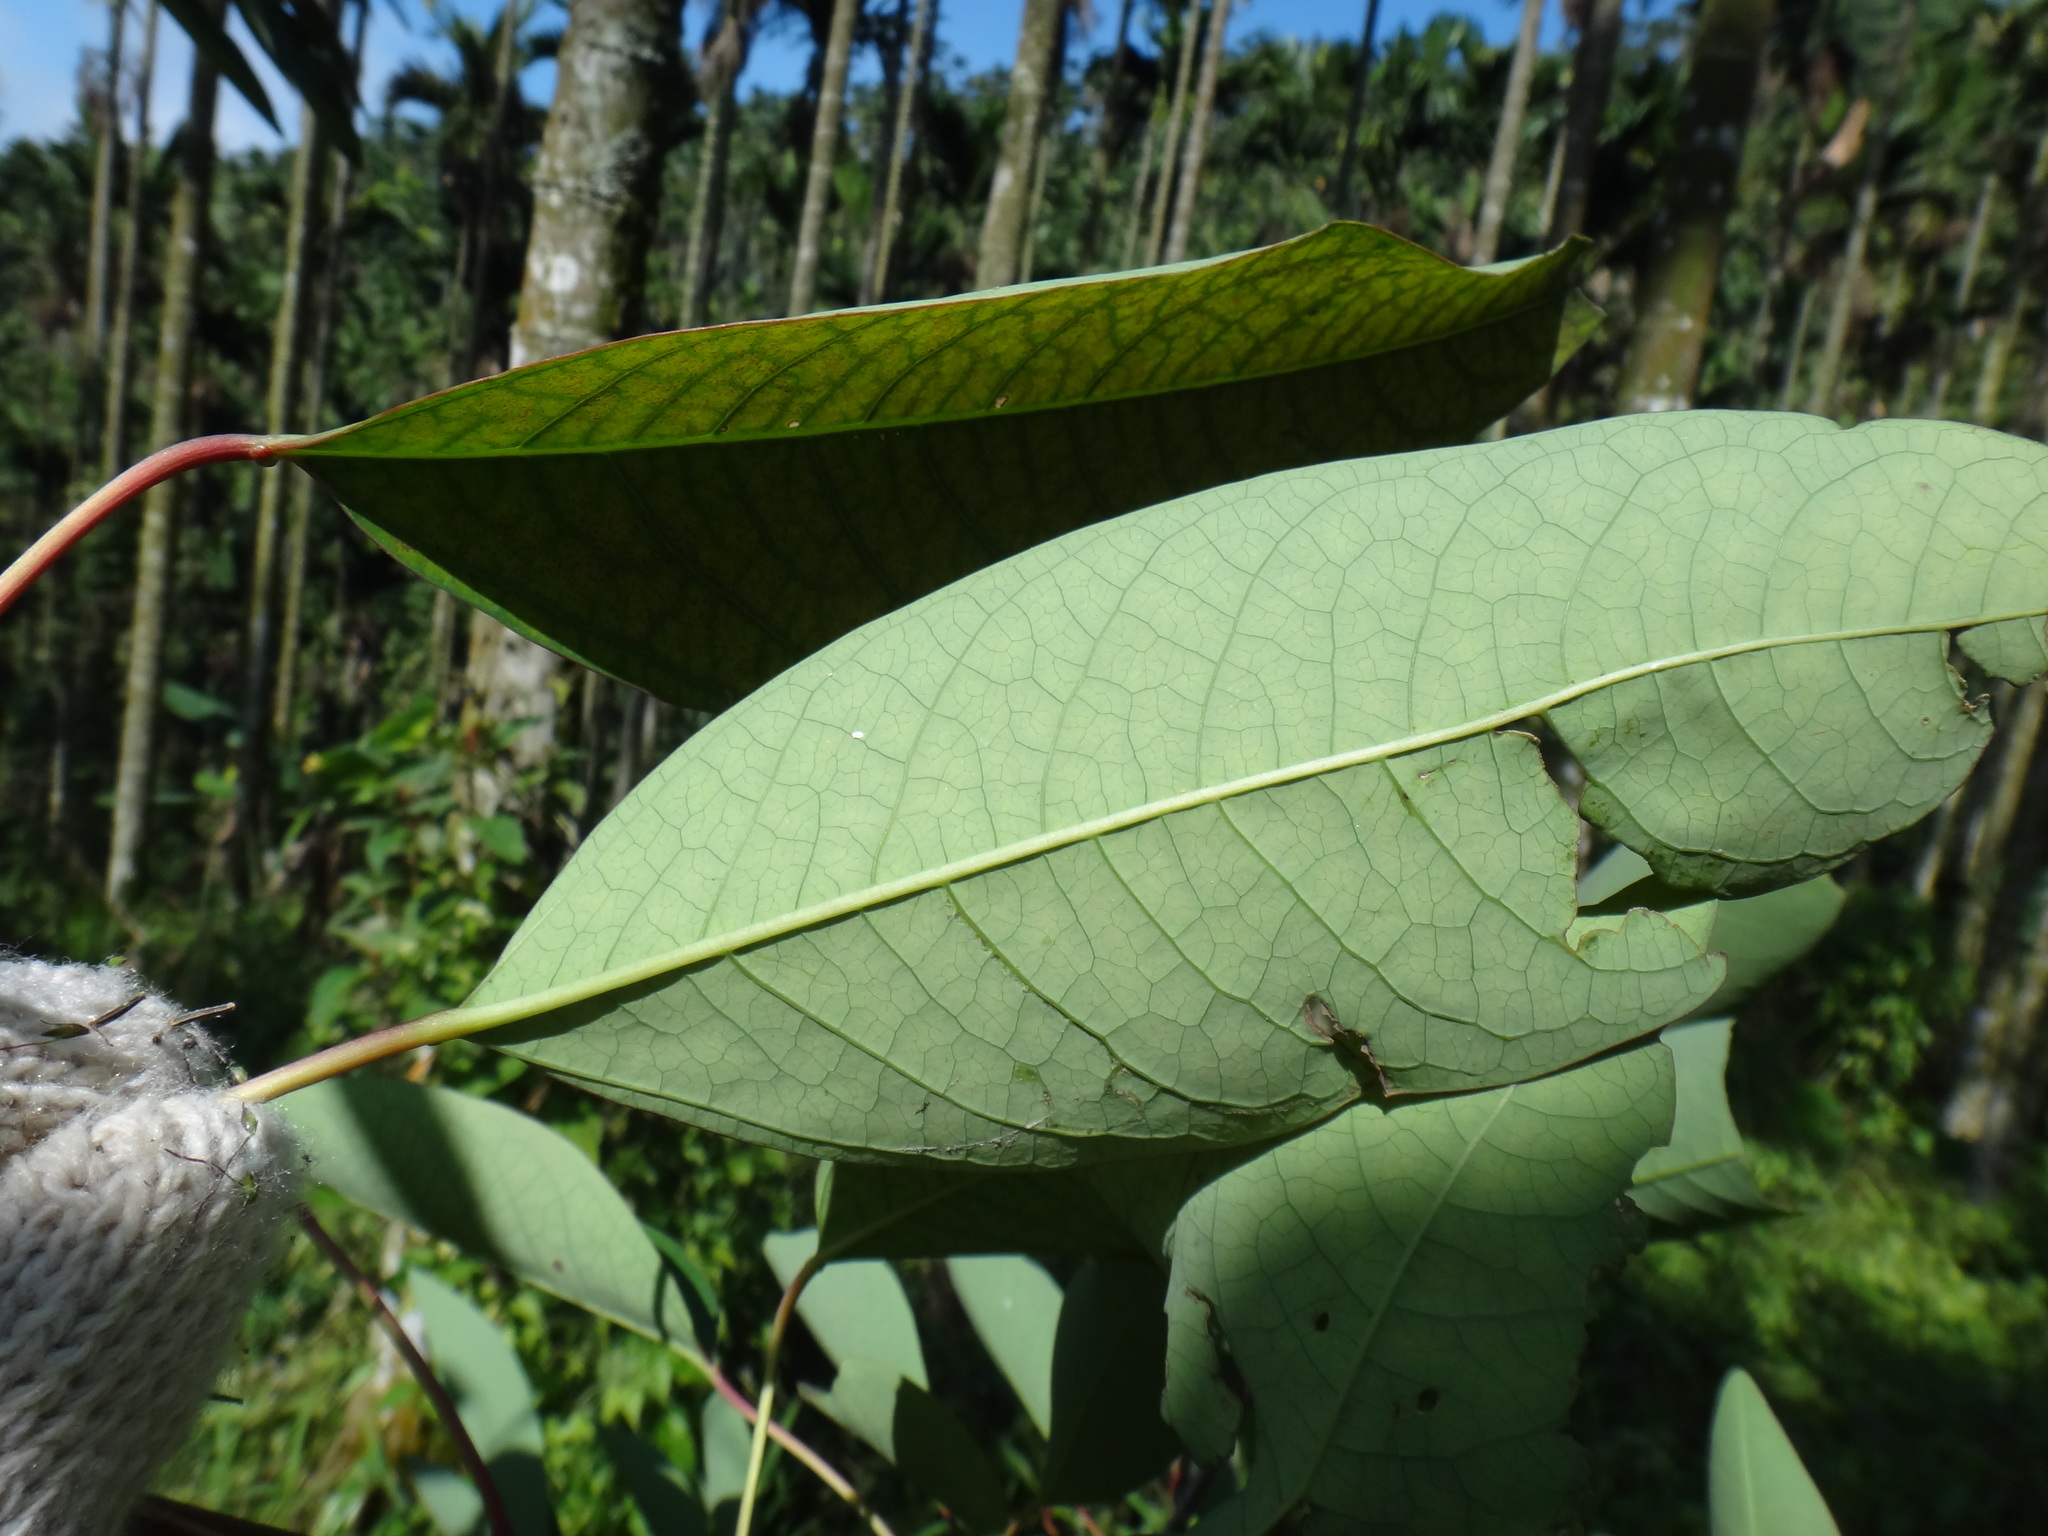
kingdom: Plantae
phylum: Tracheophyta
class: Magnoliopsida
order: Malpighiales
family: Euphorbiaceae
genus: Triadica
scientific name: Triadica cochinchinensis
